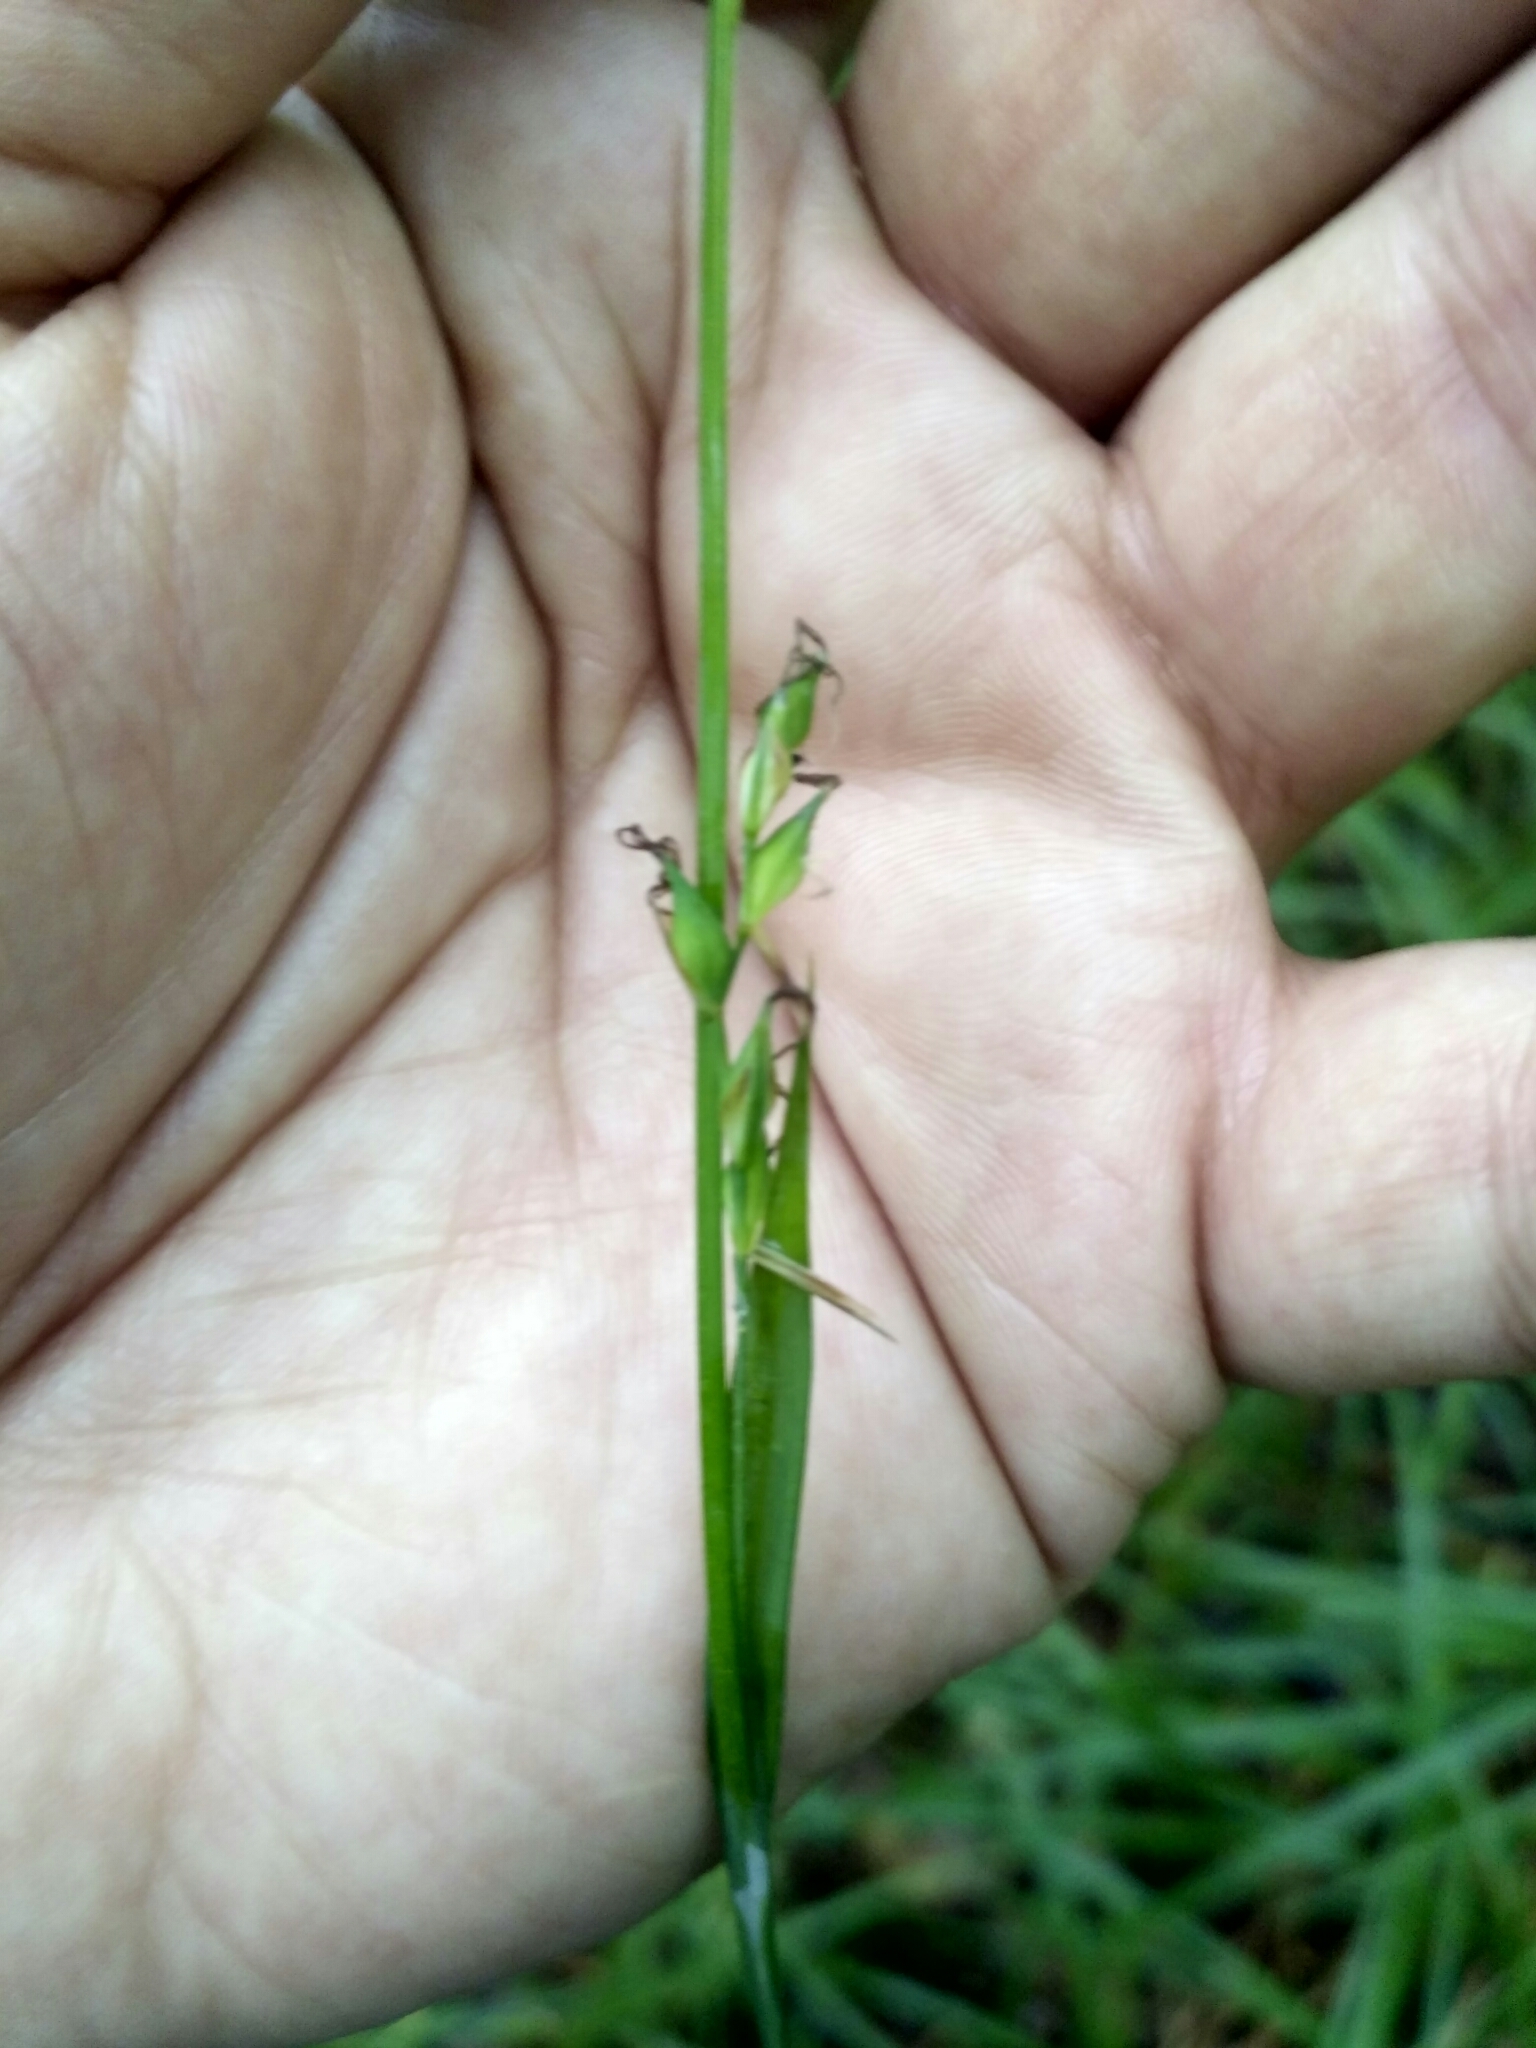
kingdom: Plantae
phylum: Tracheophyta
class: Liliopsida
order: Poales
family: Cyperaceae
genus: Carex
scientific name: Carex pilosa
